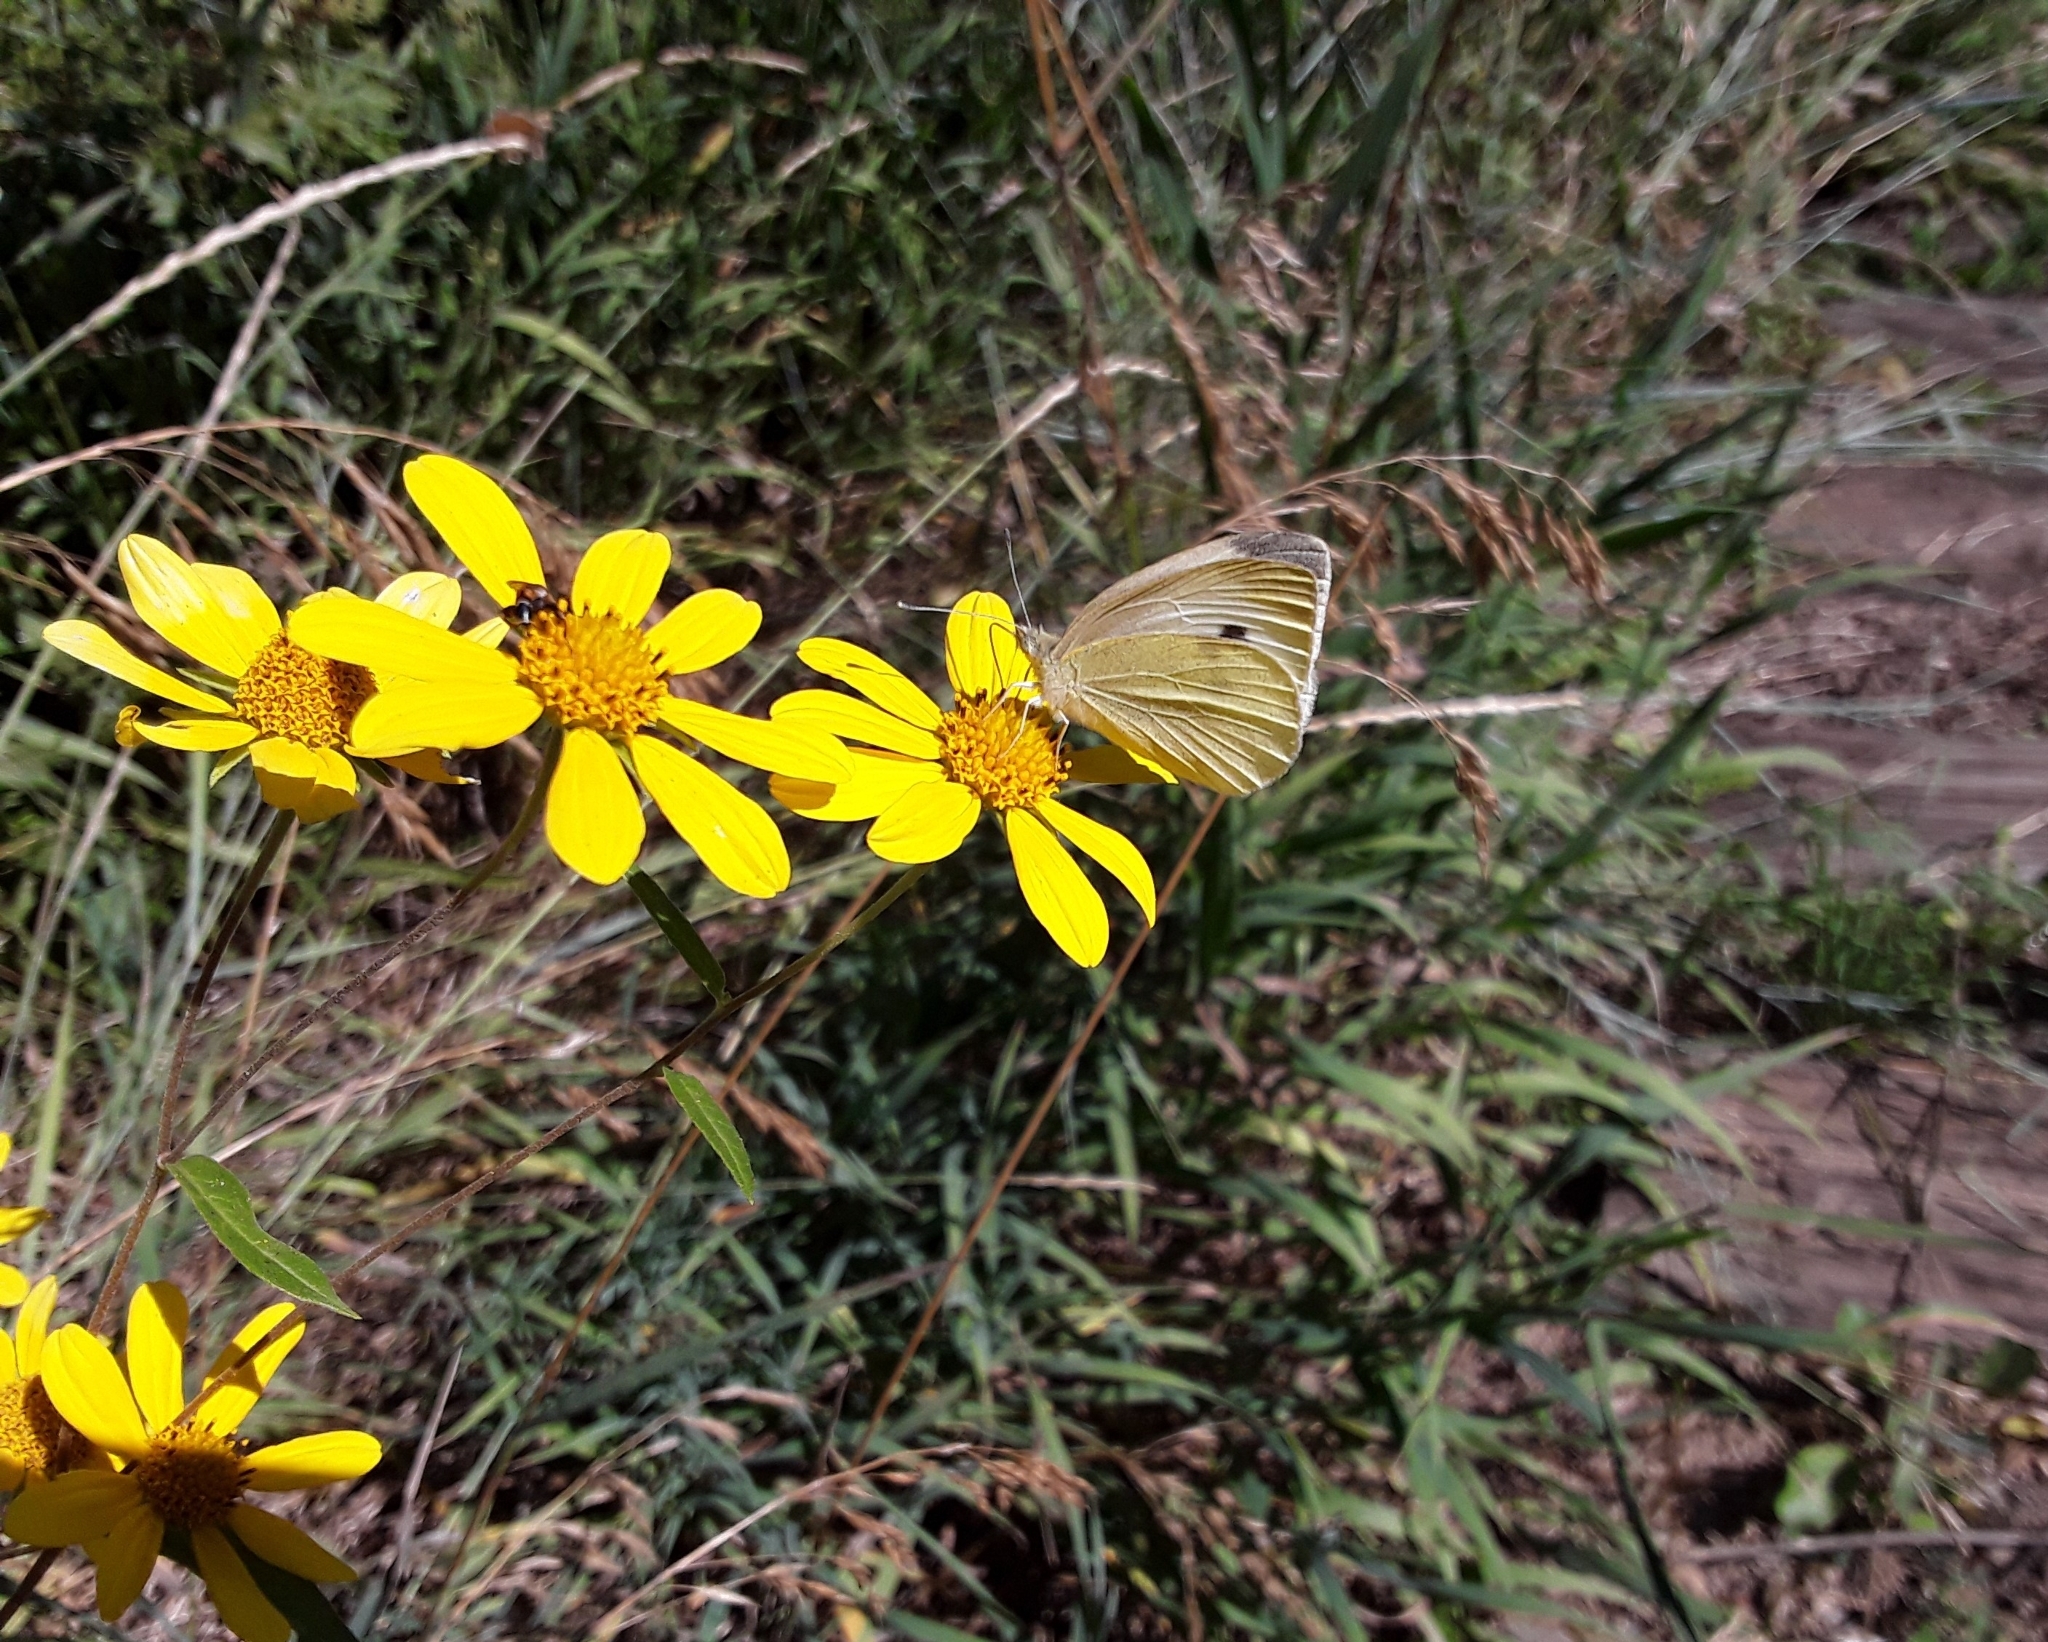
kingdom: Animalia
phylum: Arthropoda
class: Insecta
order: Lepidoptera
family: Pieridae
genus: Pieris
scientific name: Pieris rapae
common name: Small white
